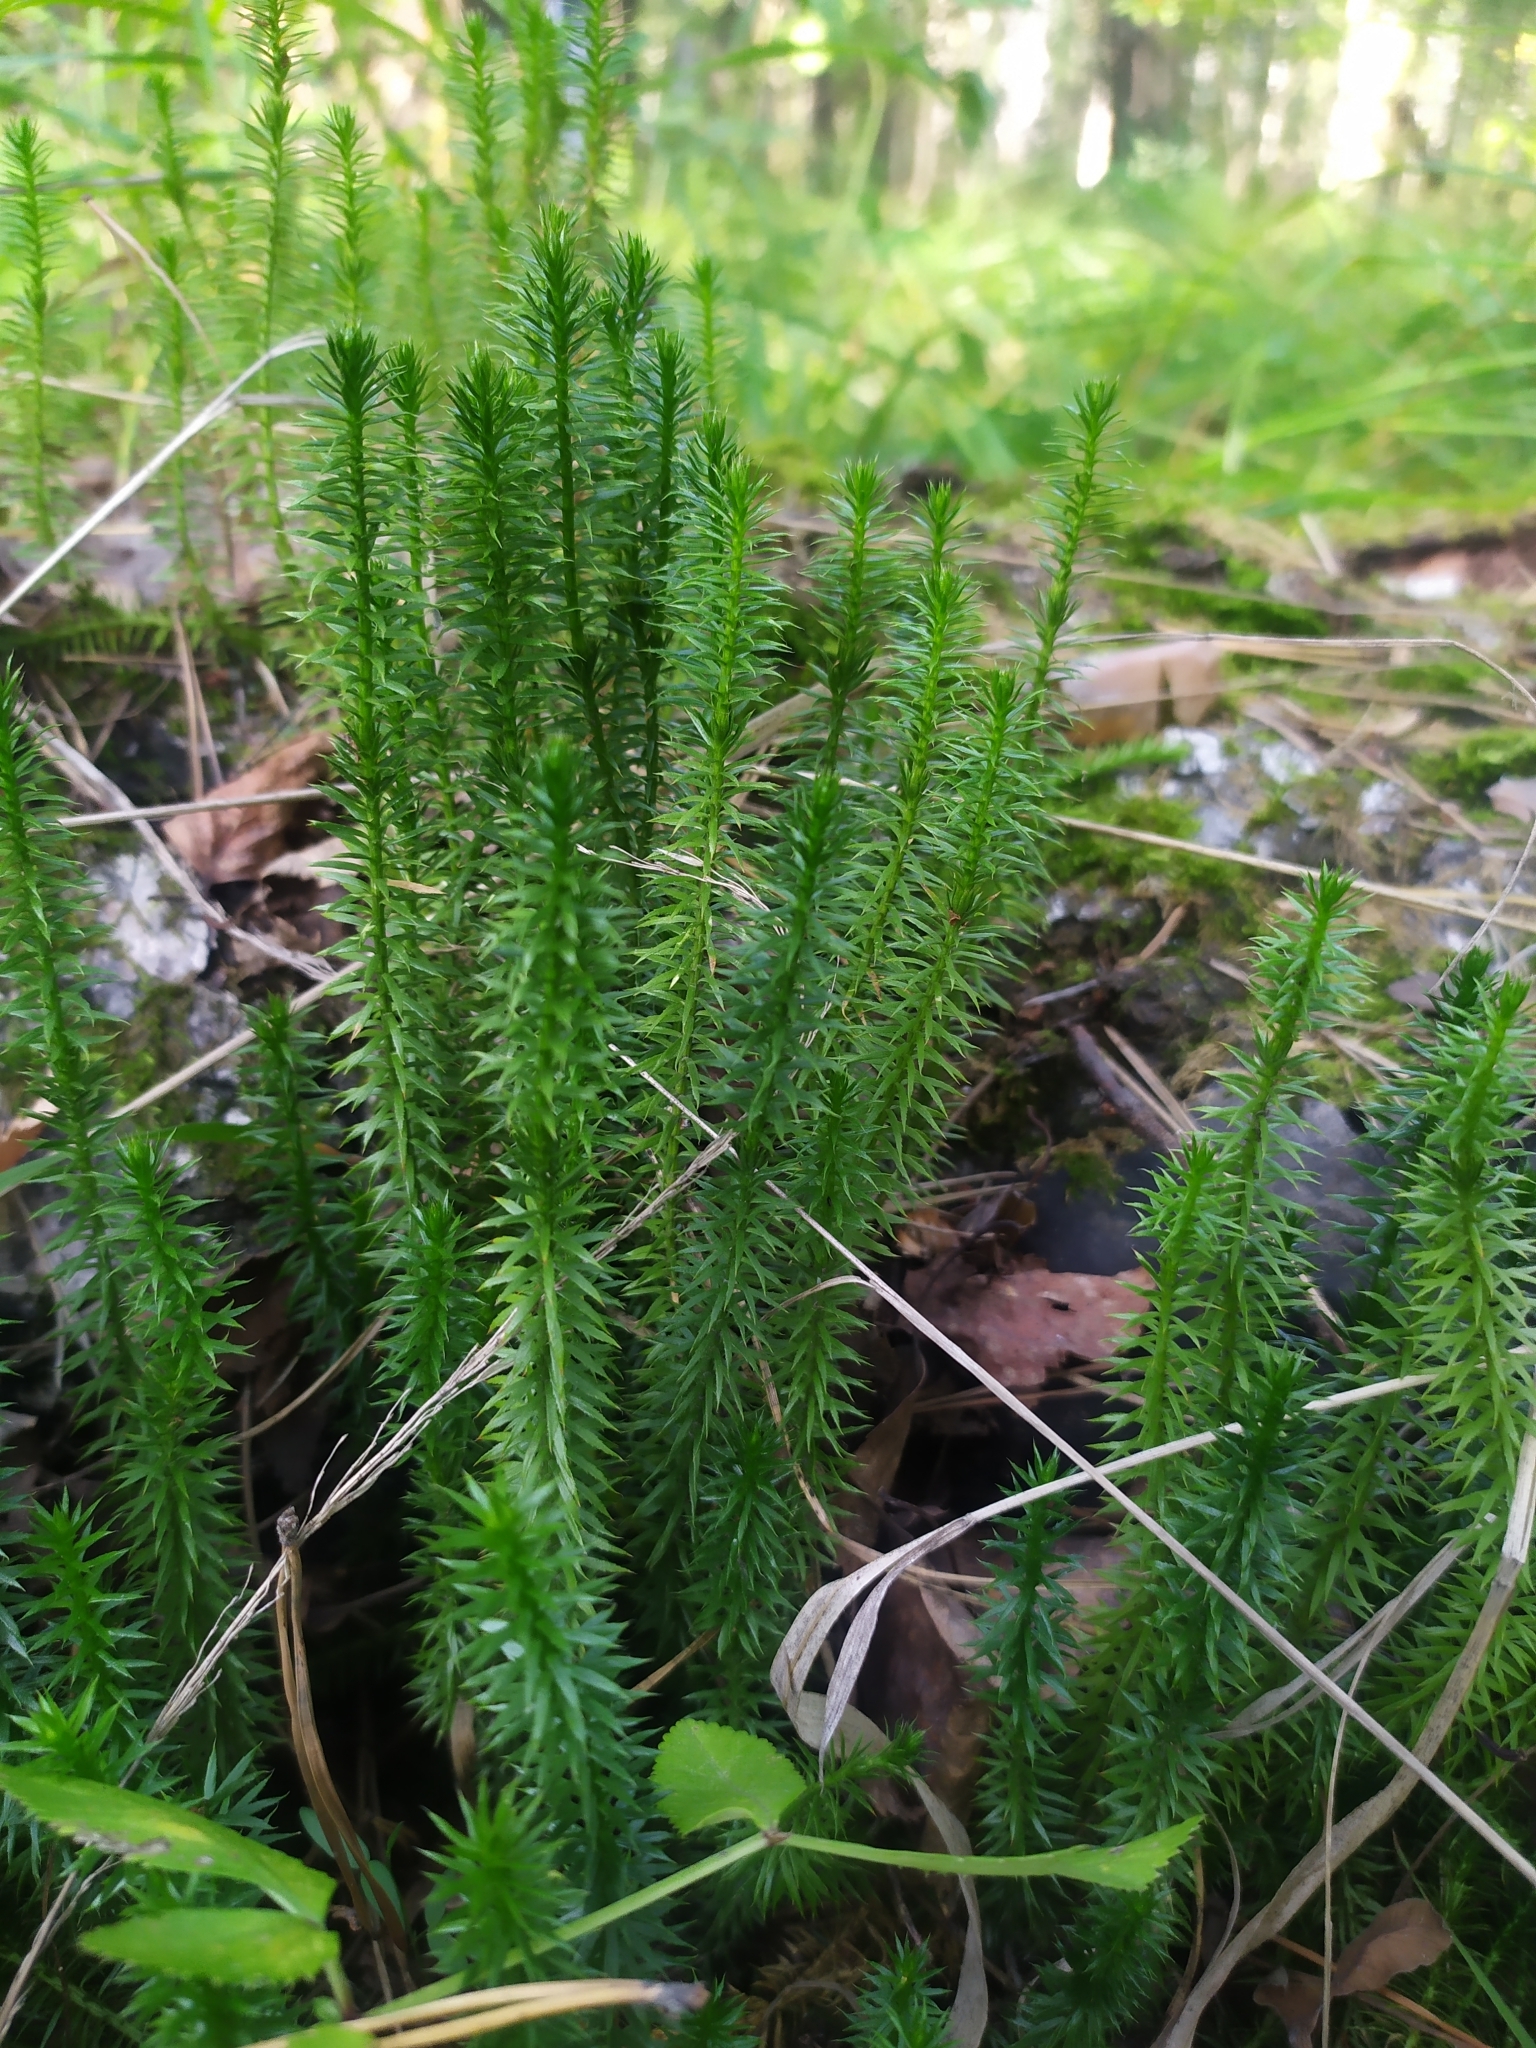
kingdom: Plantae
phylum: Tracheophyta
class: Lycopodiopsida
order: Lycopodiales
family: Lycopodiaceae
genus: Spinulum
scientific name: Spinulum annotinum
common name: Interrupted club-moss
